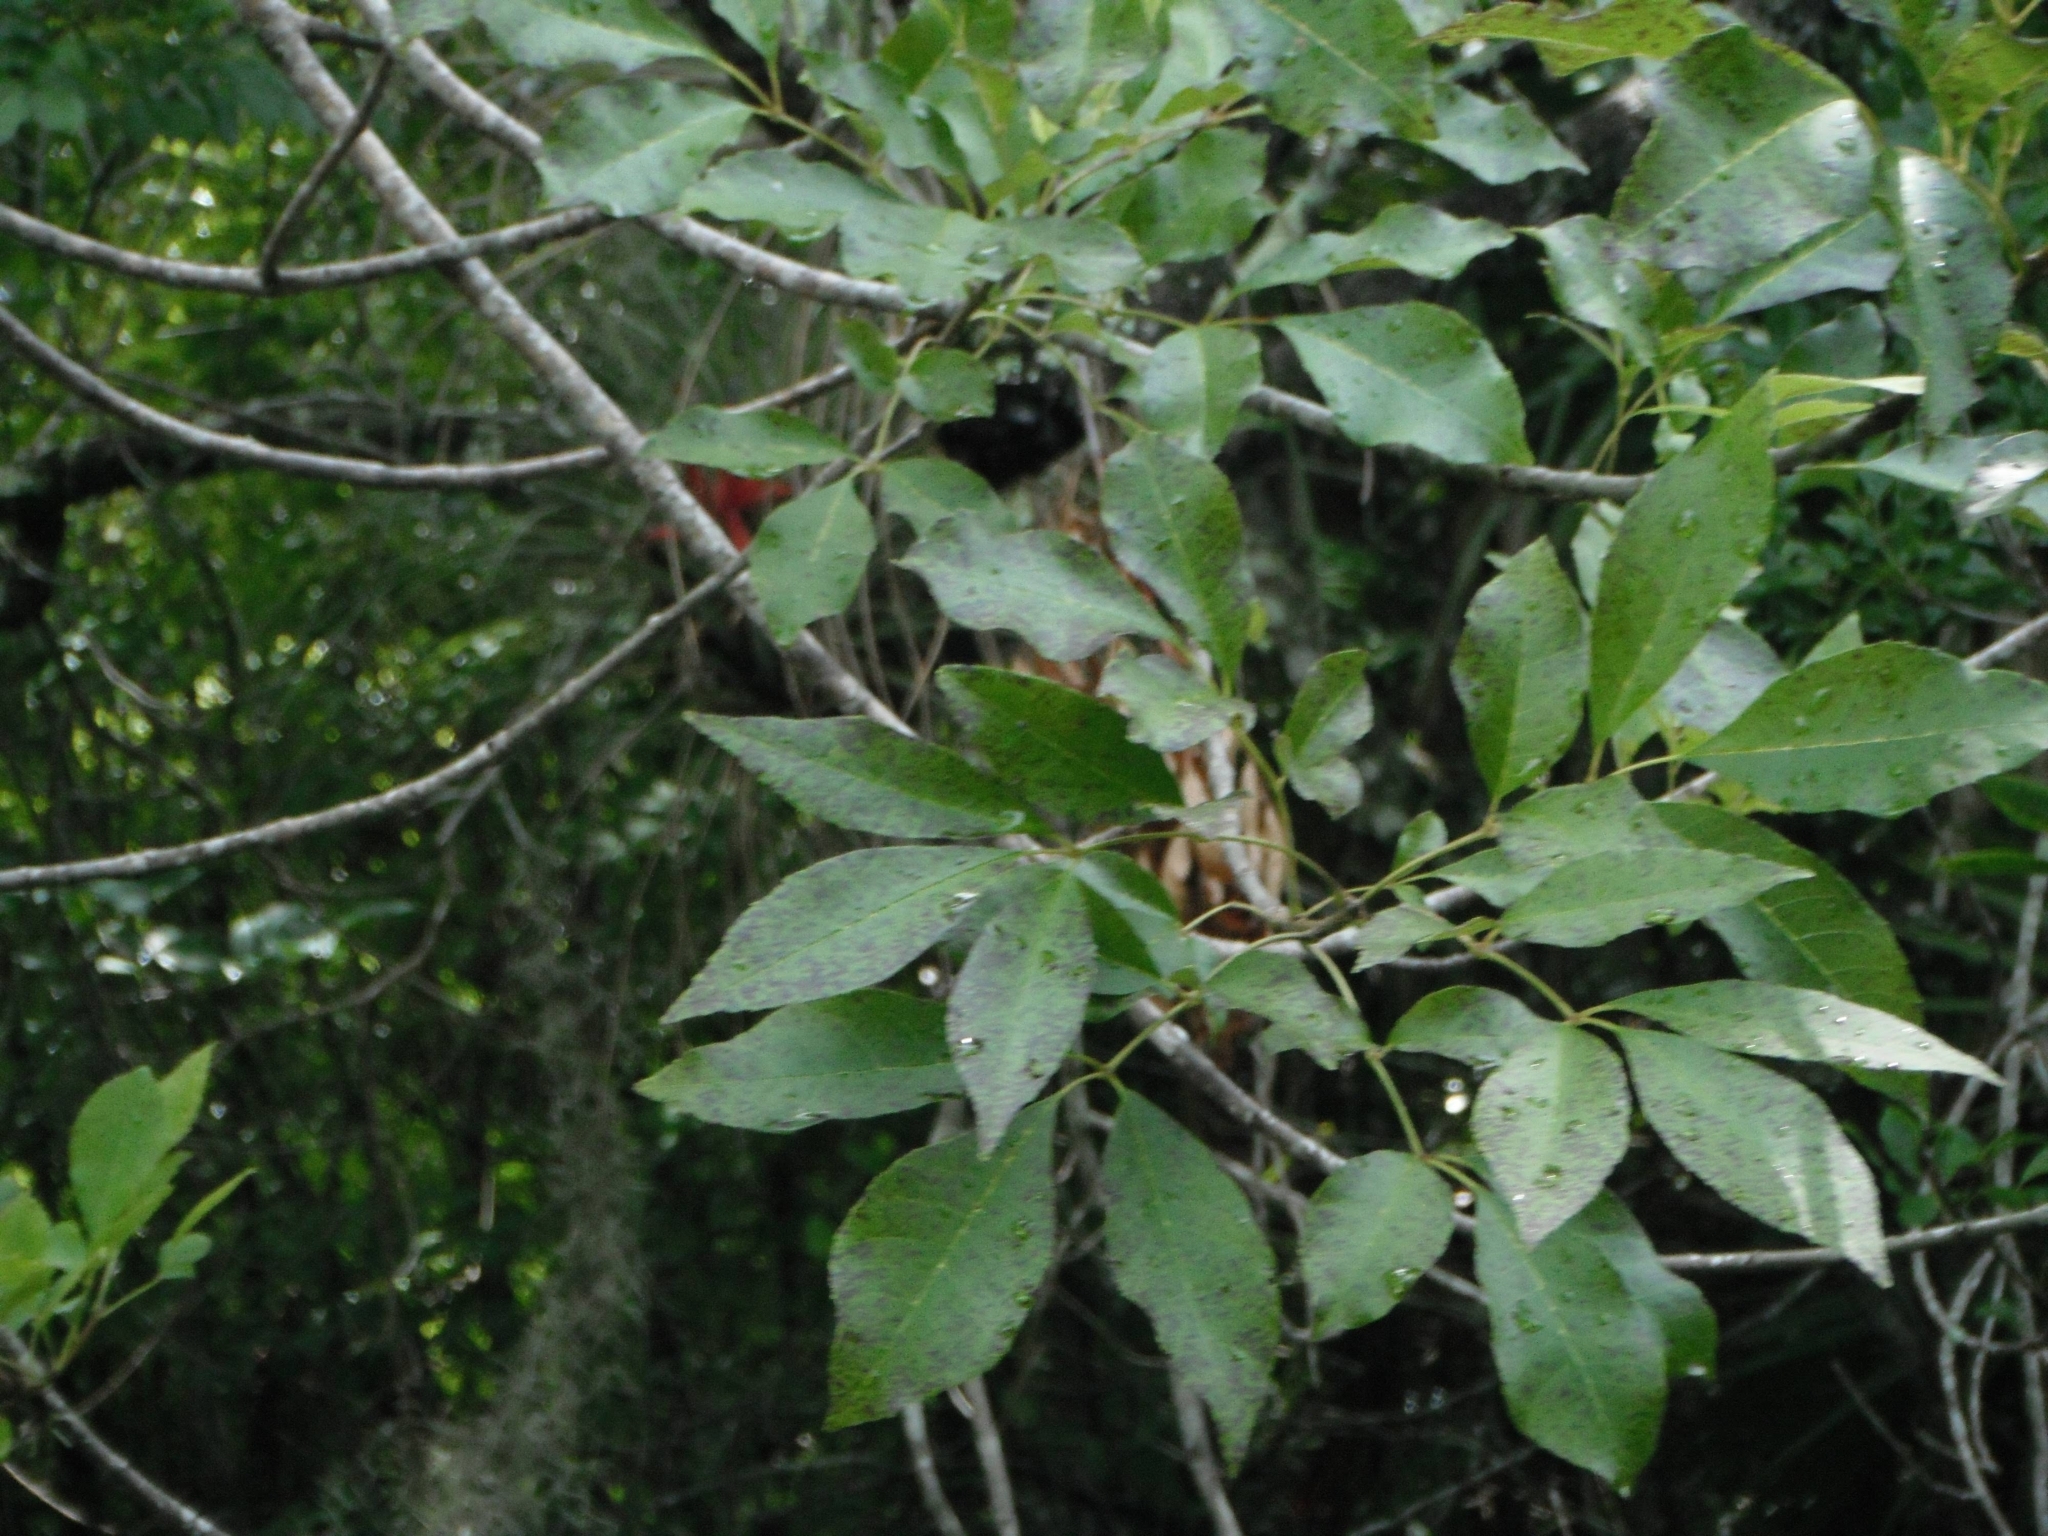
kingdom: Plantae
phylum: Tracheophyta
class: Magnoliopsida
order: Lamiales
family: Oleaceae
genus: Fraxinus
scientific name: Fraxinus caroliniana
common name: Carolina ash
